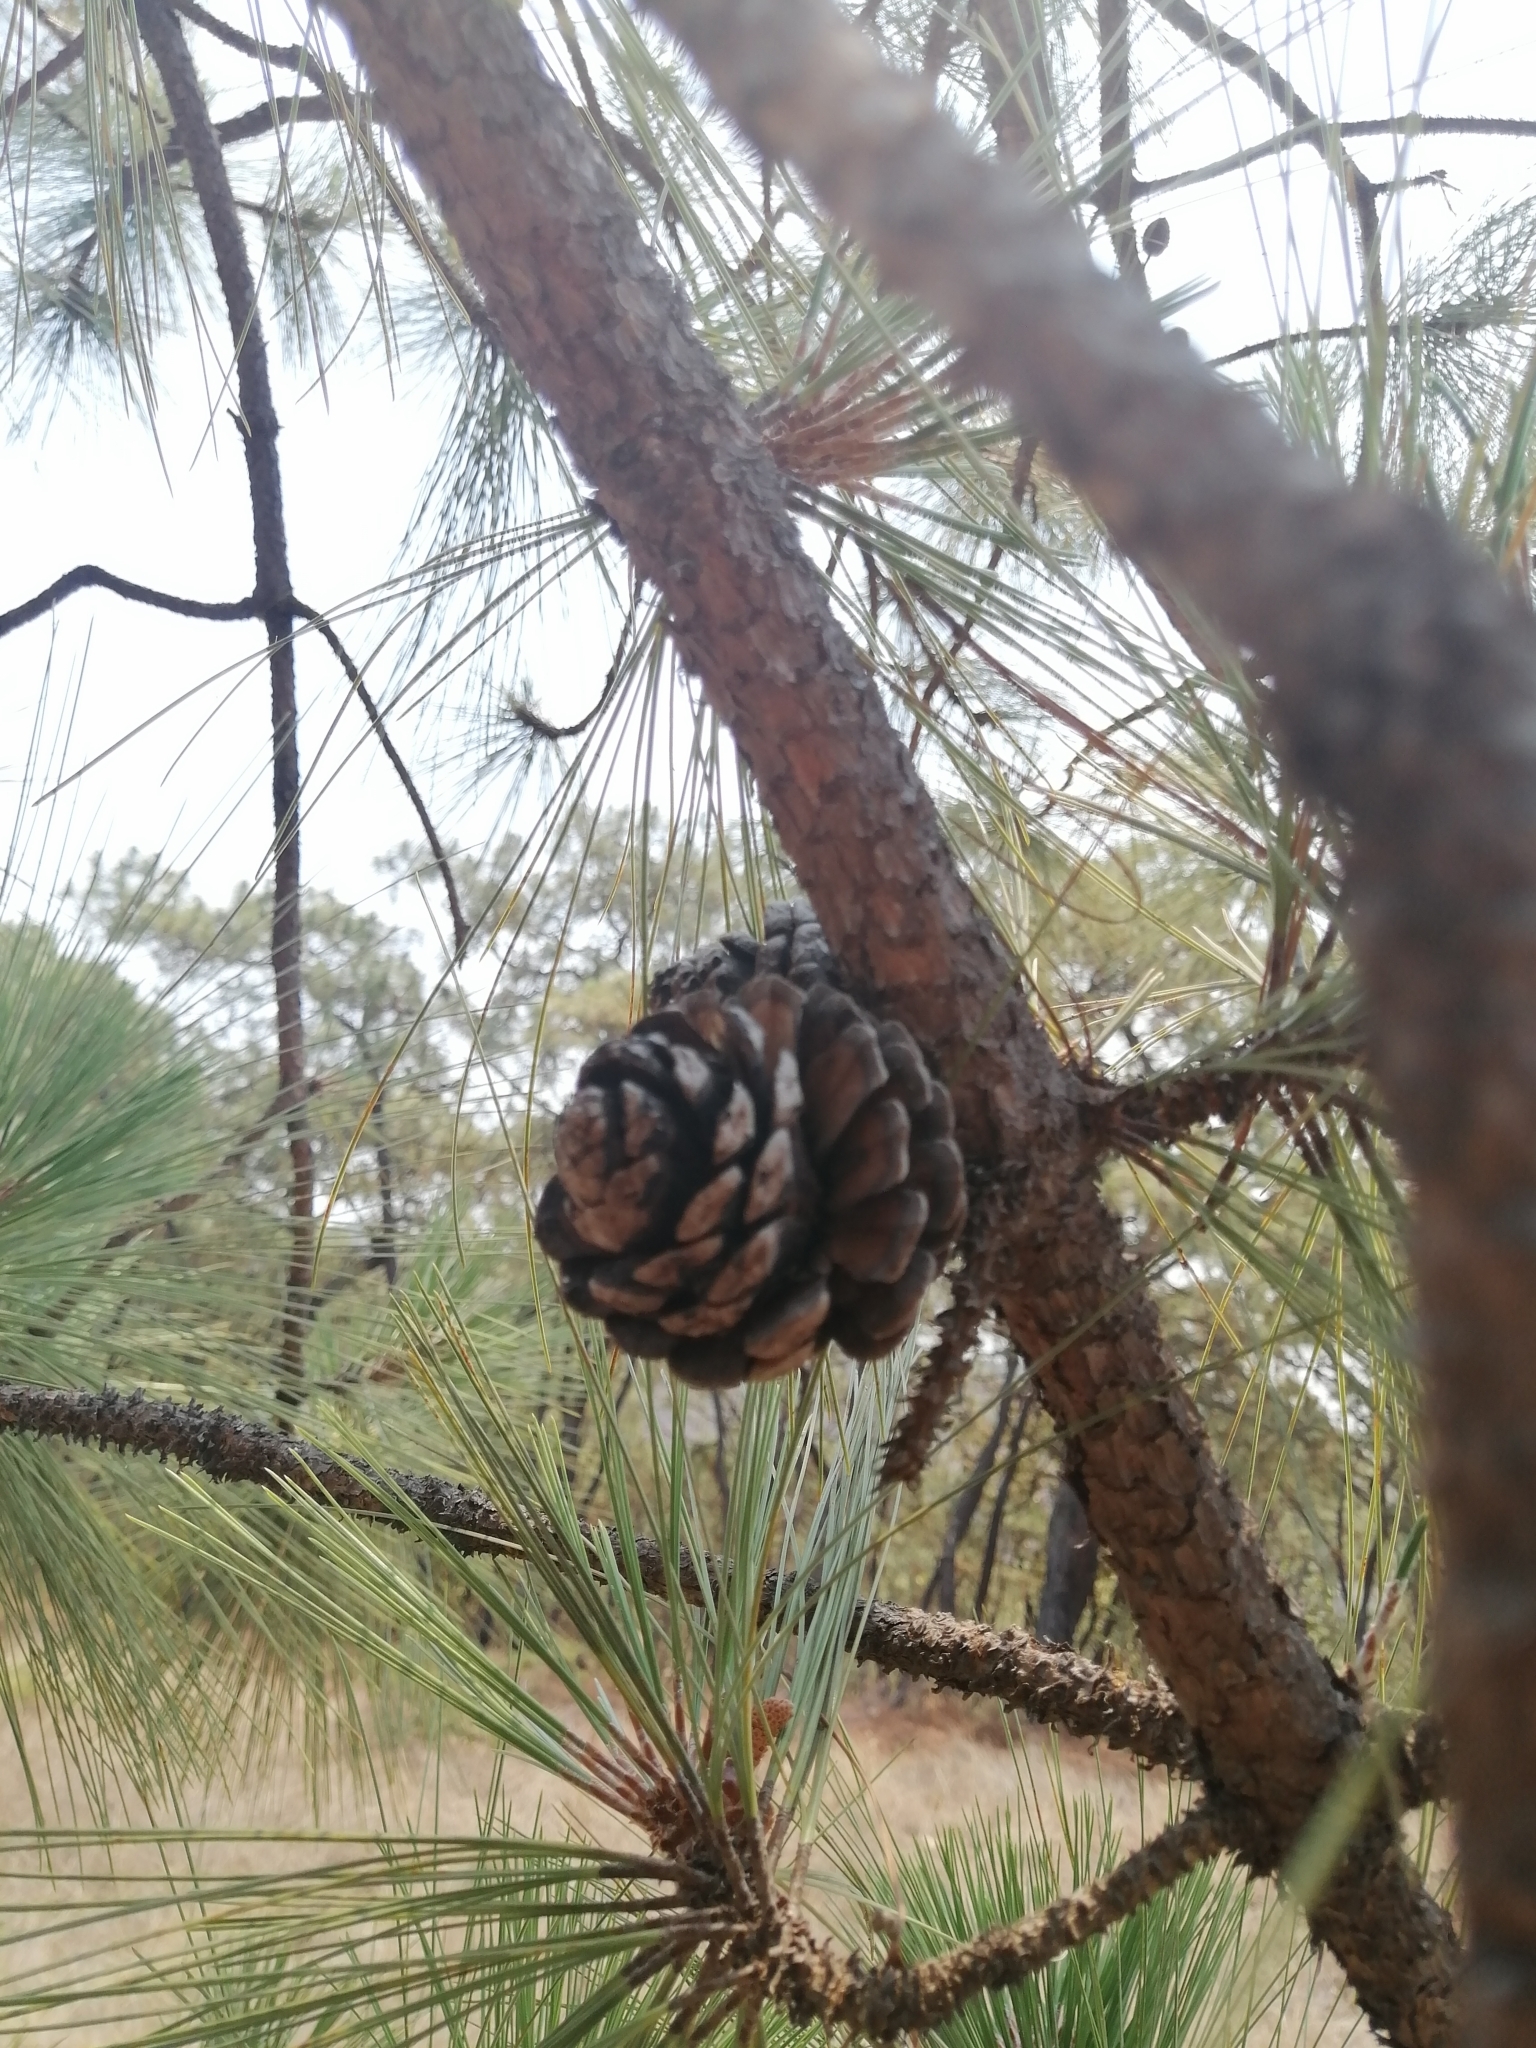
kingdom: Plantae
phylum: Tracheophyta
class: Pinopsida
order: Pinales
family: Pinaceae
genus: Pinus
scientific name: Pinus oocarpa
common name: Egg-cone pine
